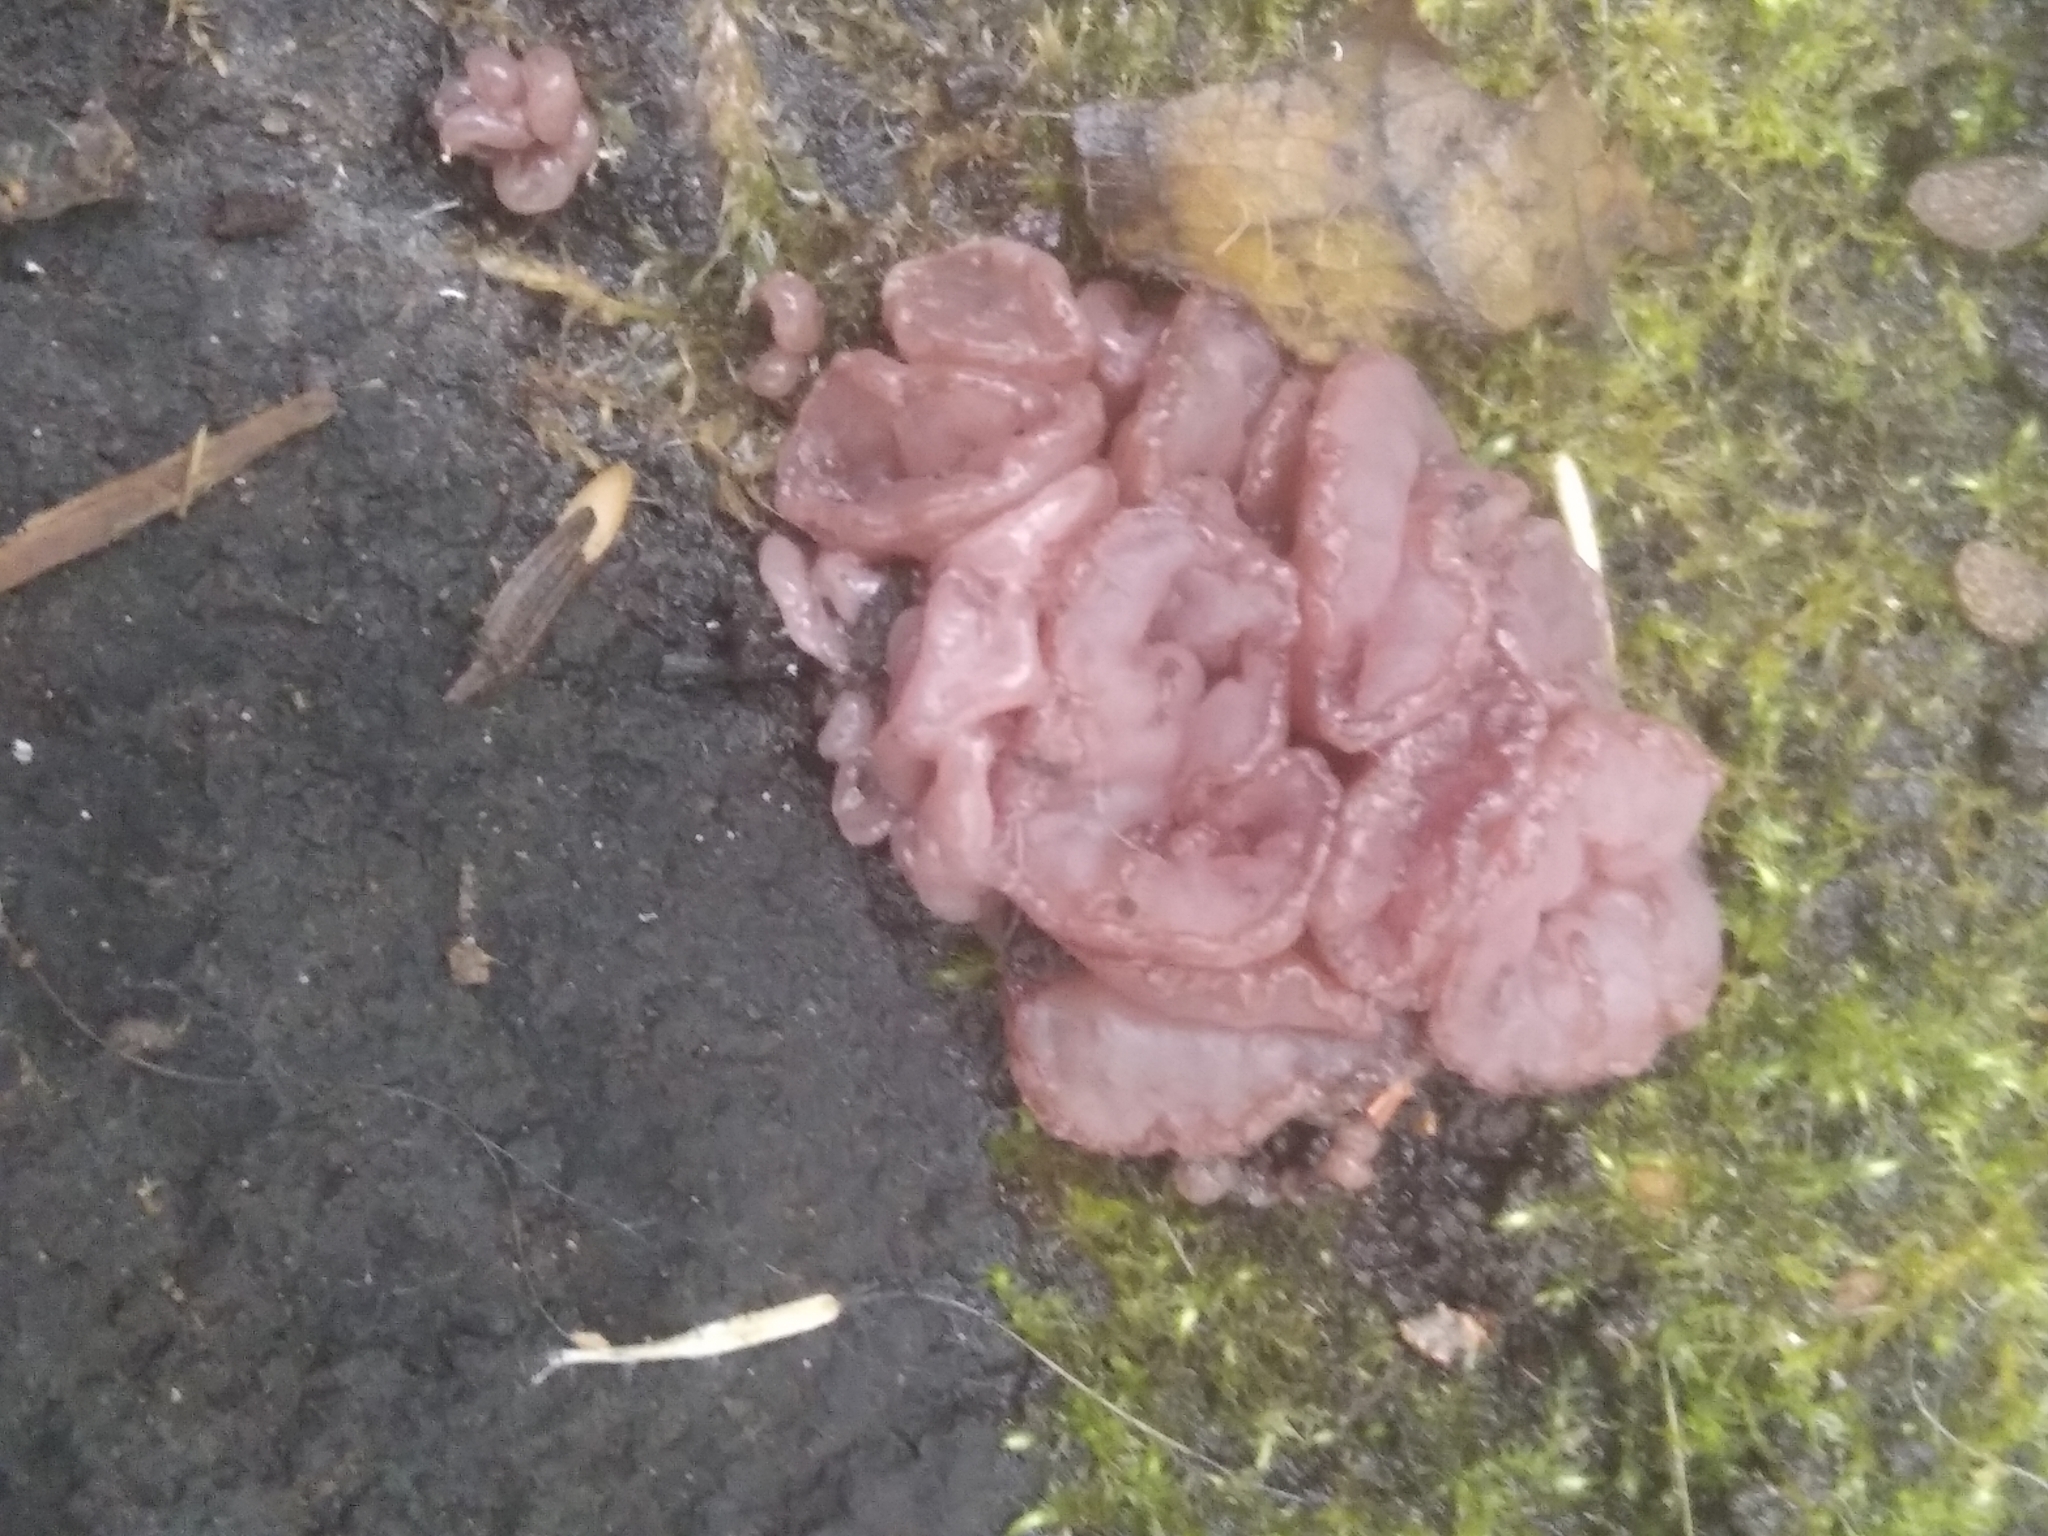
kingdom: Fungi
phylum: Ascomycota
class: Leotiomycetes
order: Helotiales
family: Gelatinodiscaceae
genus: Ascocoryne
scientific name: Ascocoryne sarcoides
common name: Purple jellydisc
